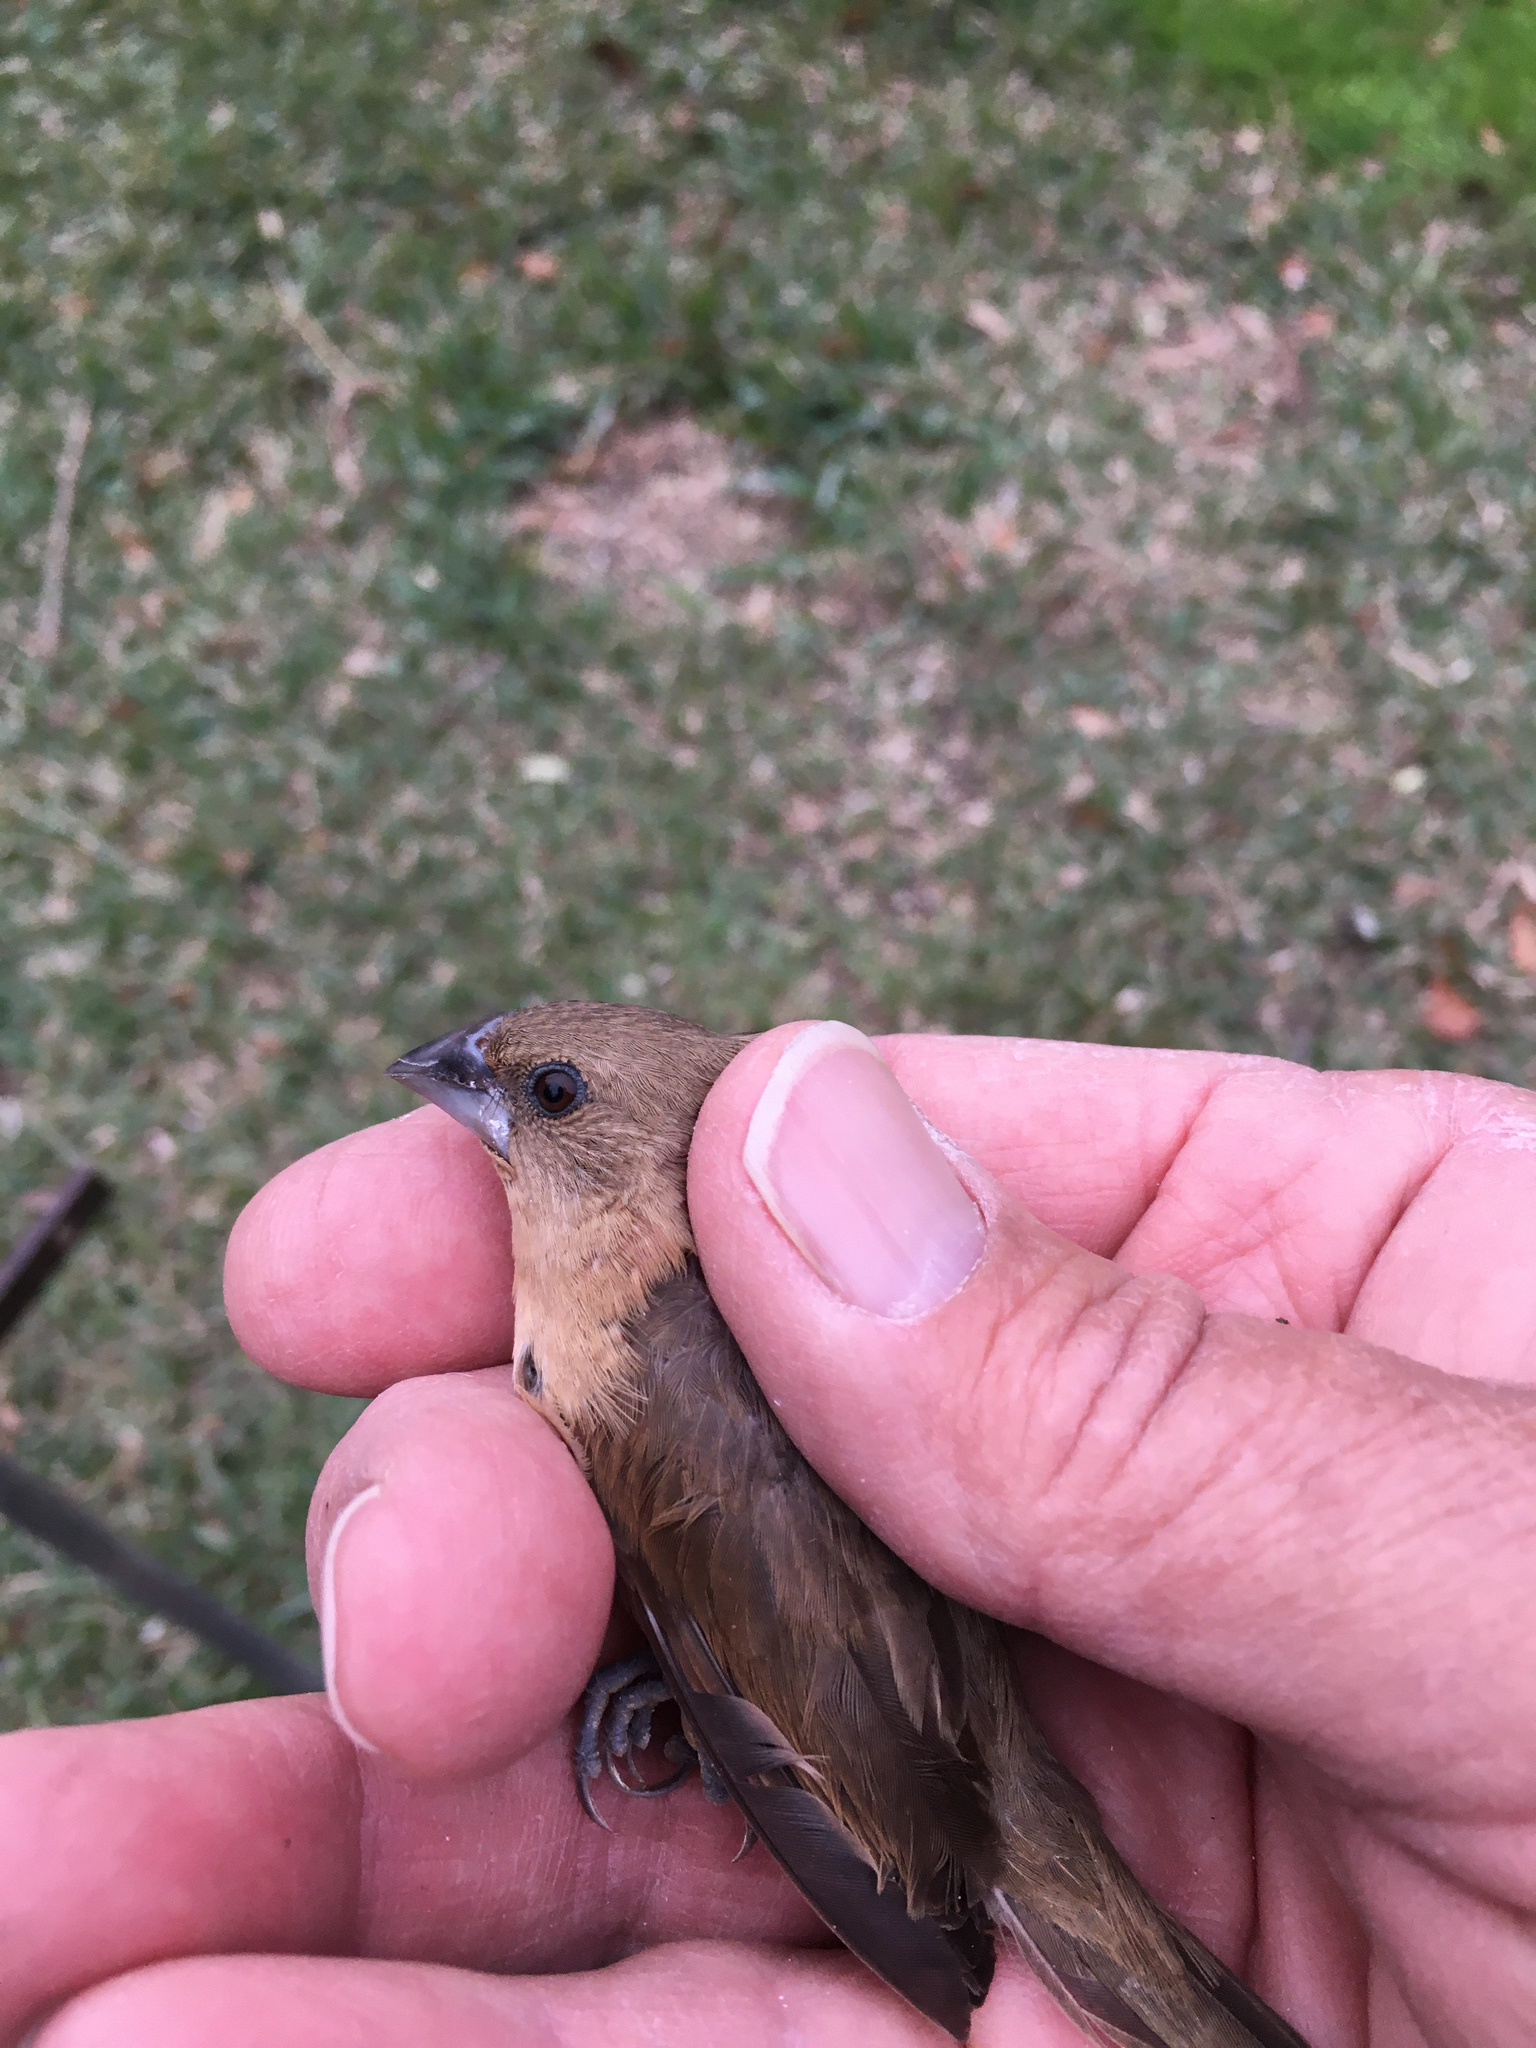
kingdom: Animalia
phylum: Chordata
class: Aves
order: Passeriformes
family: Estrildidae
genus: Lonchura
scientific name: Lonchura punctulata
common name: Scaly-breasted munia
